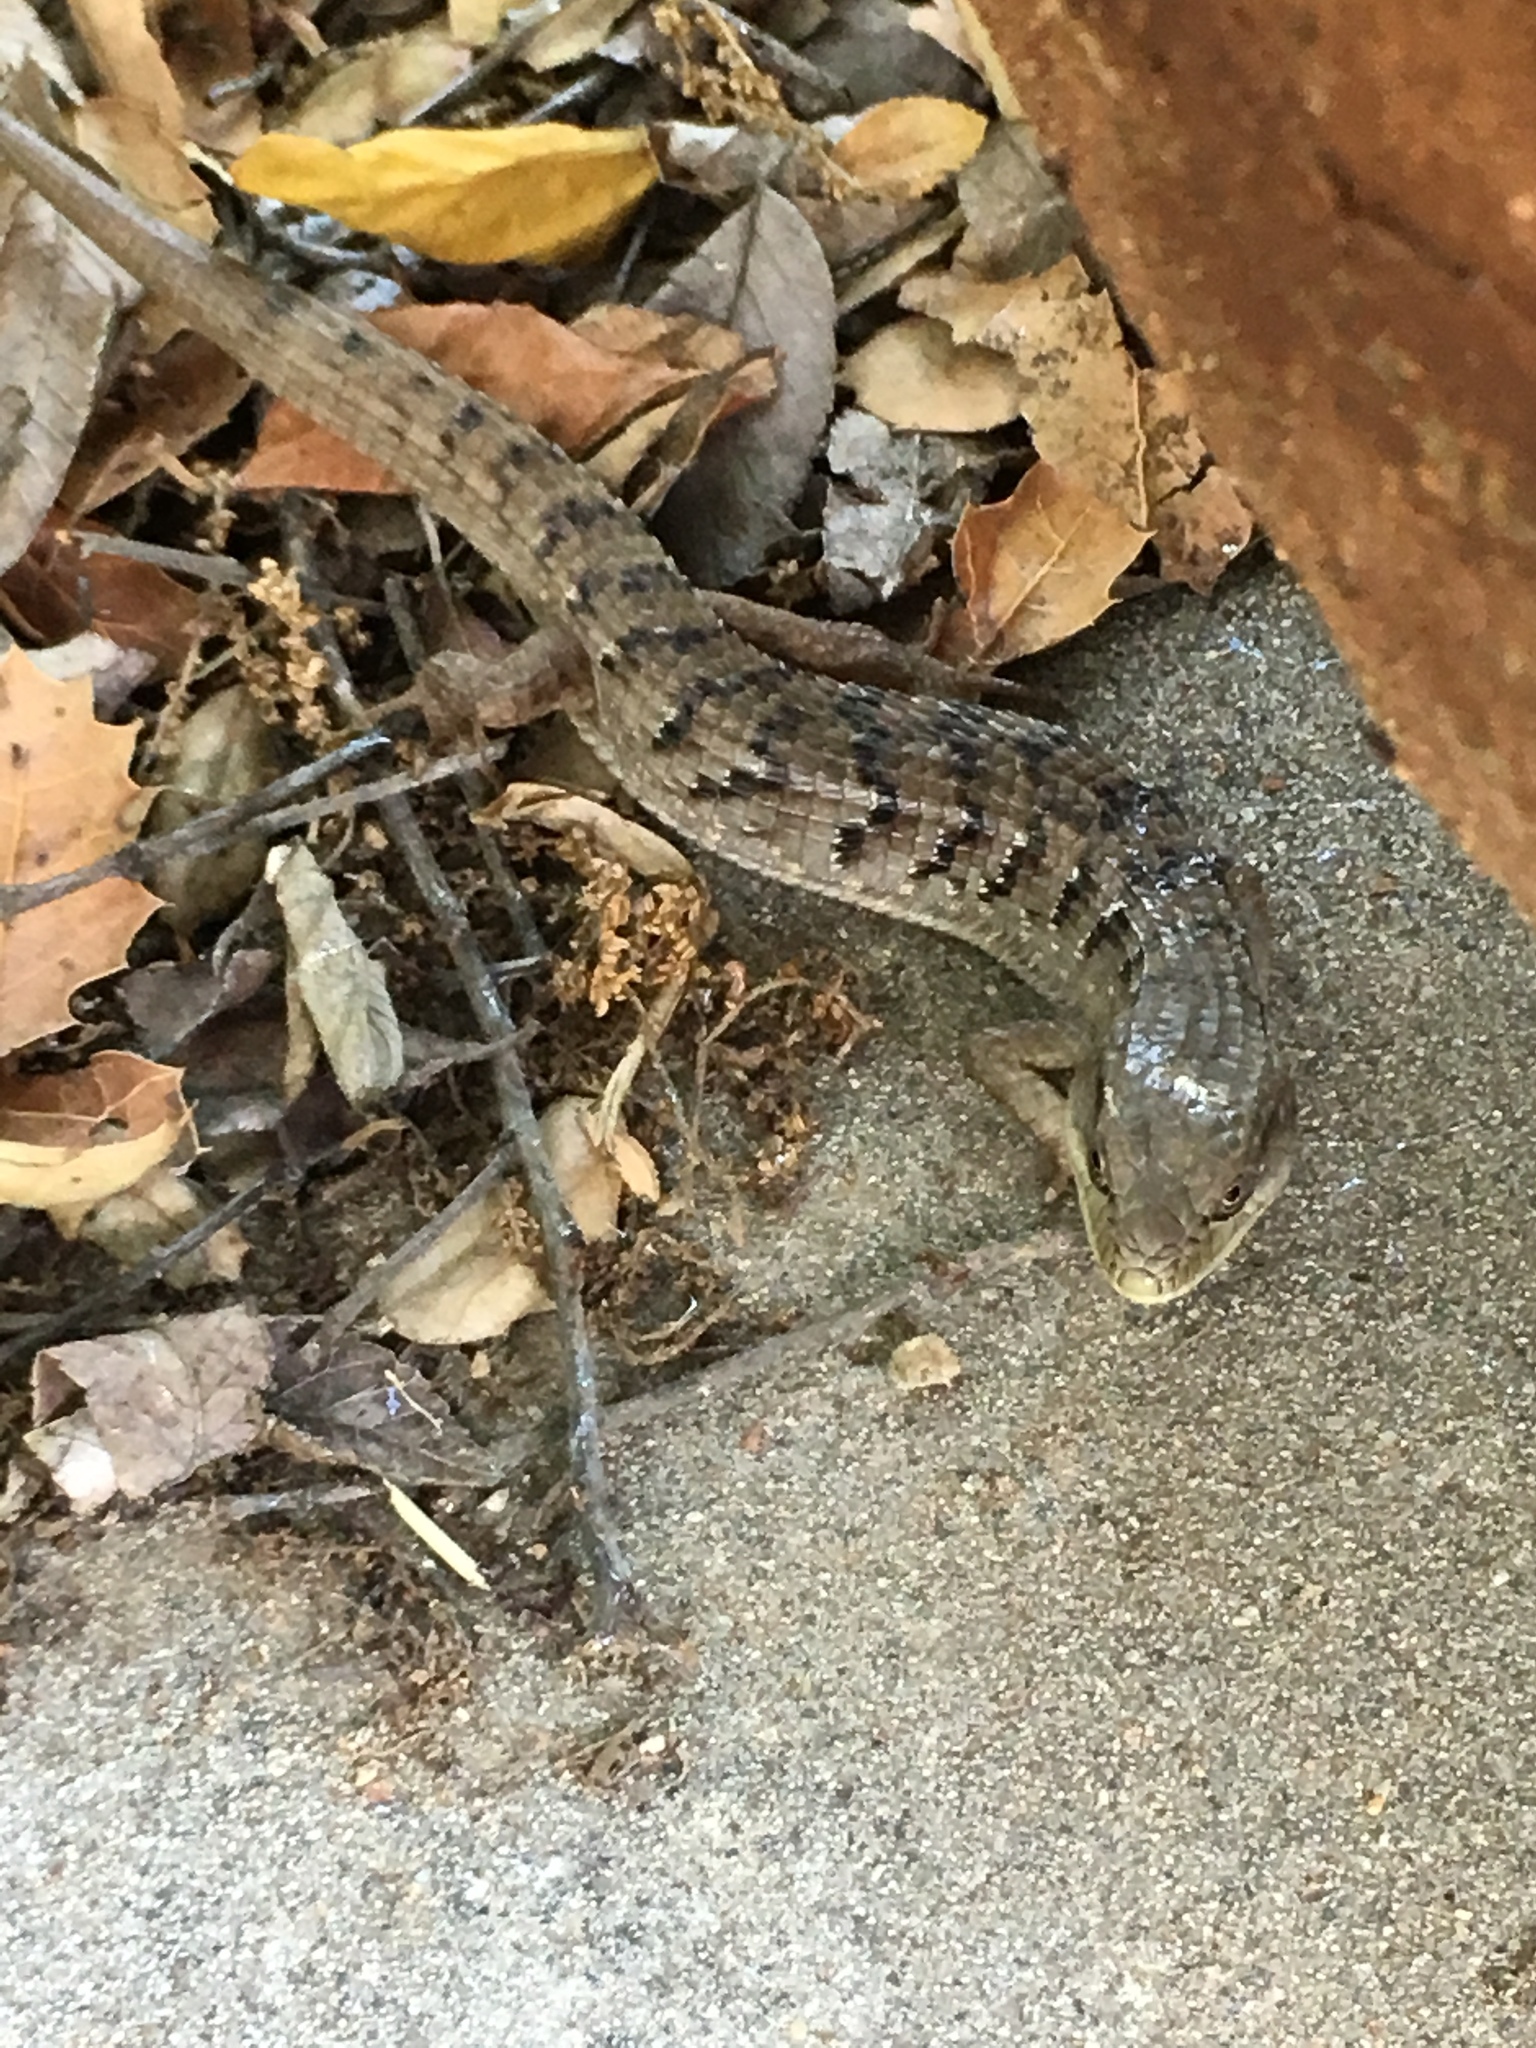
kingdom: Animalia
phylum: Chordata
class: Squamata
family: Anguidae
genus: Elgaria
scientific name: Elgaria multicarinata
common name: Southern alligator lizard
